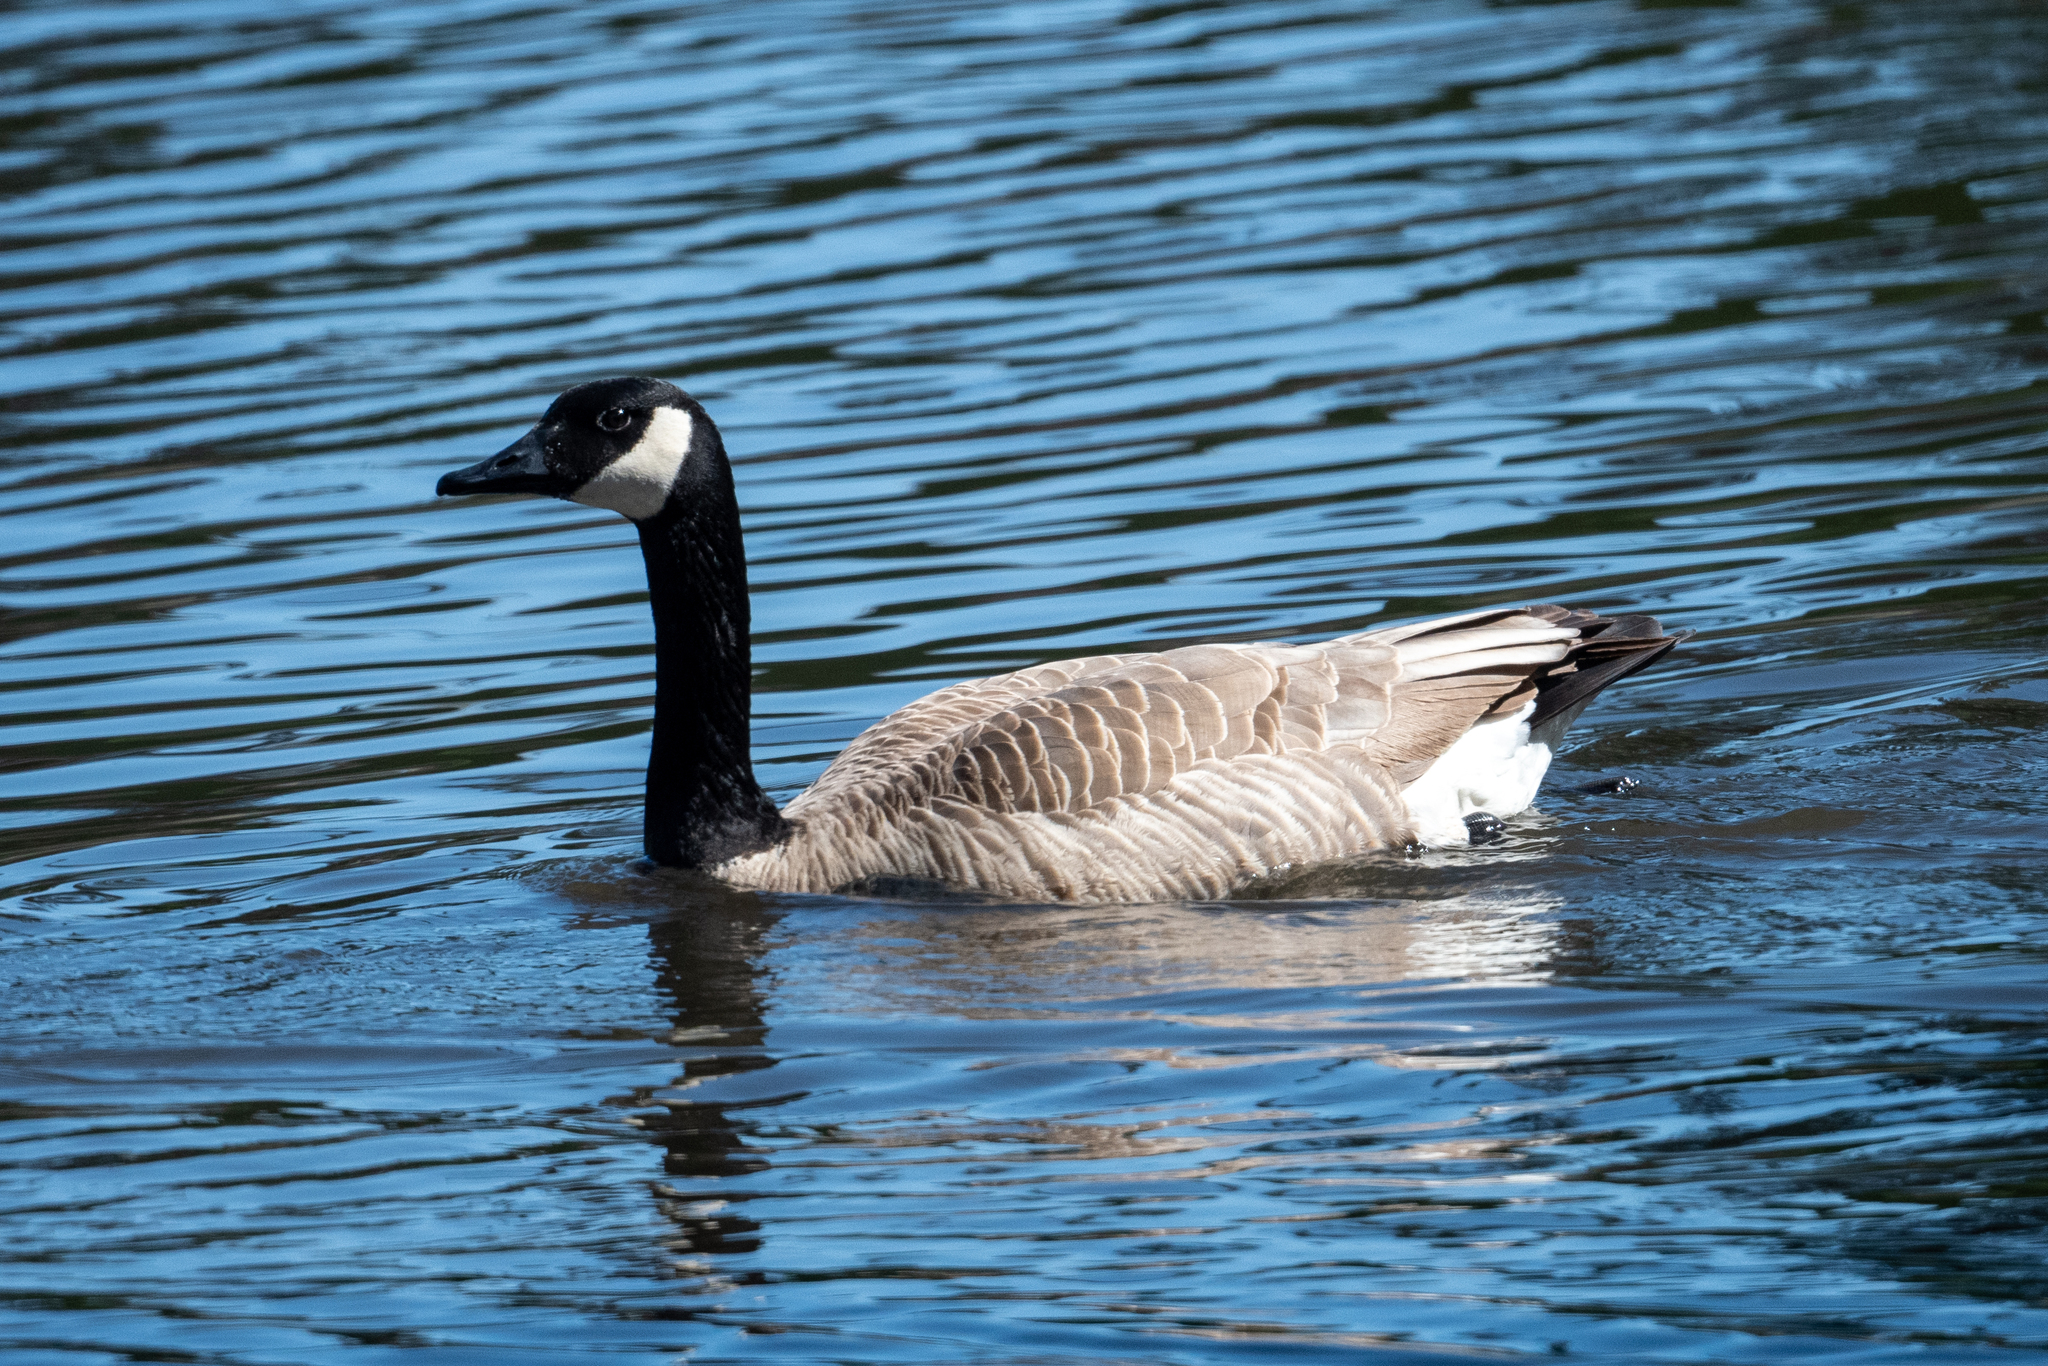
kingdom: Animalia
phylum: Chordata
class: Aves
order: Anseriformes
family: Anatidae
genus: Branta
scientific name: Branta canadensis
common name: Canada goose
